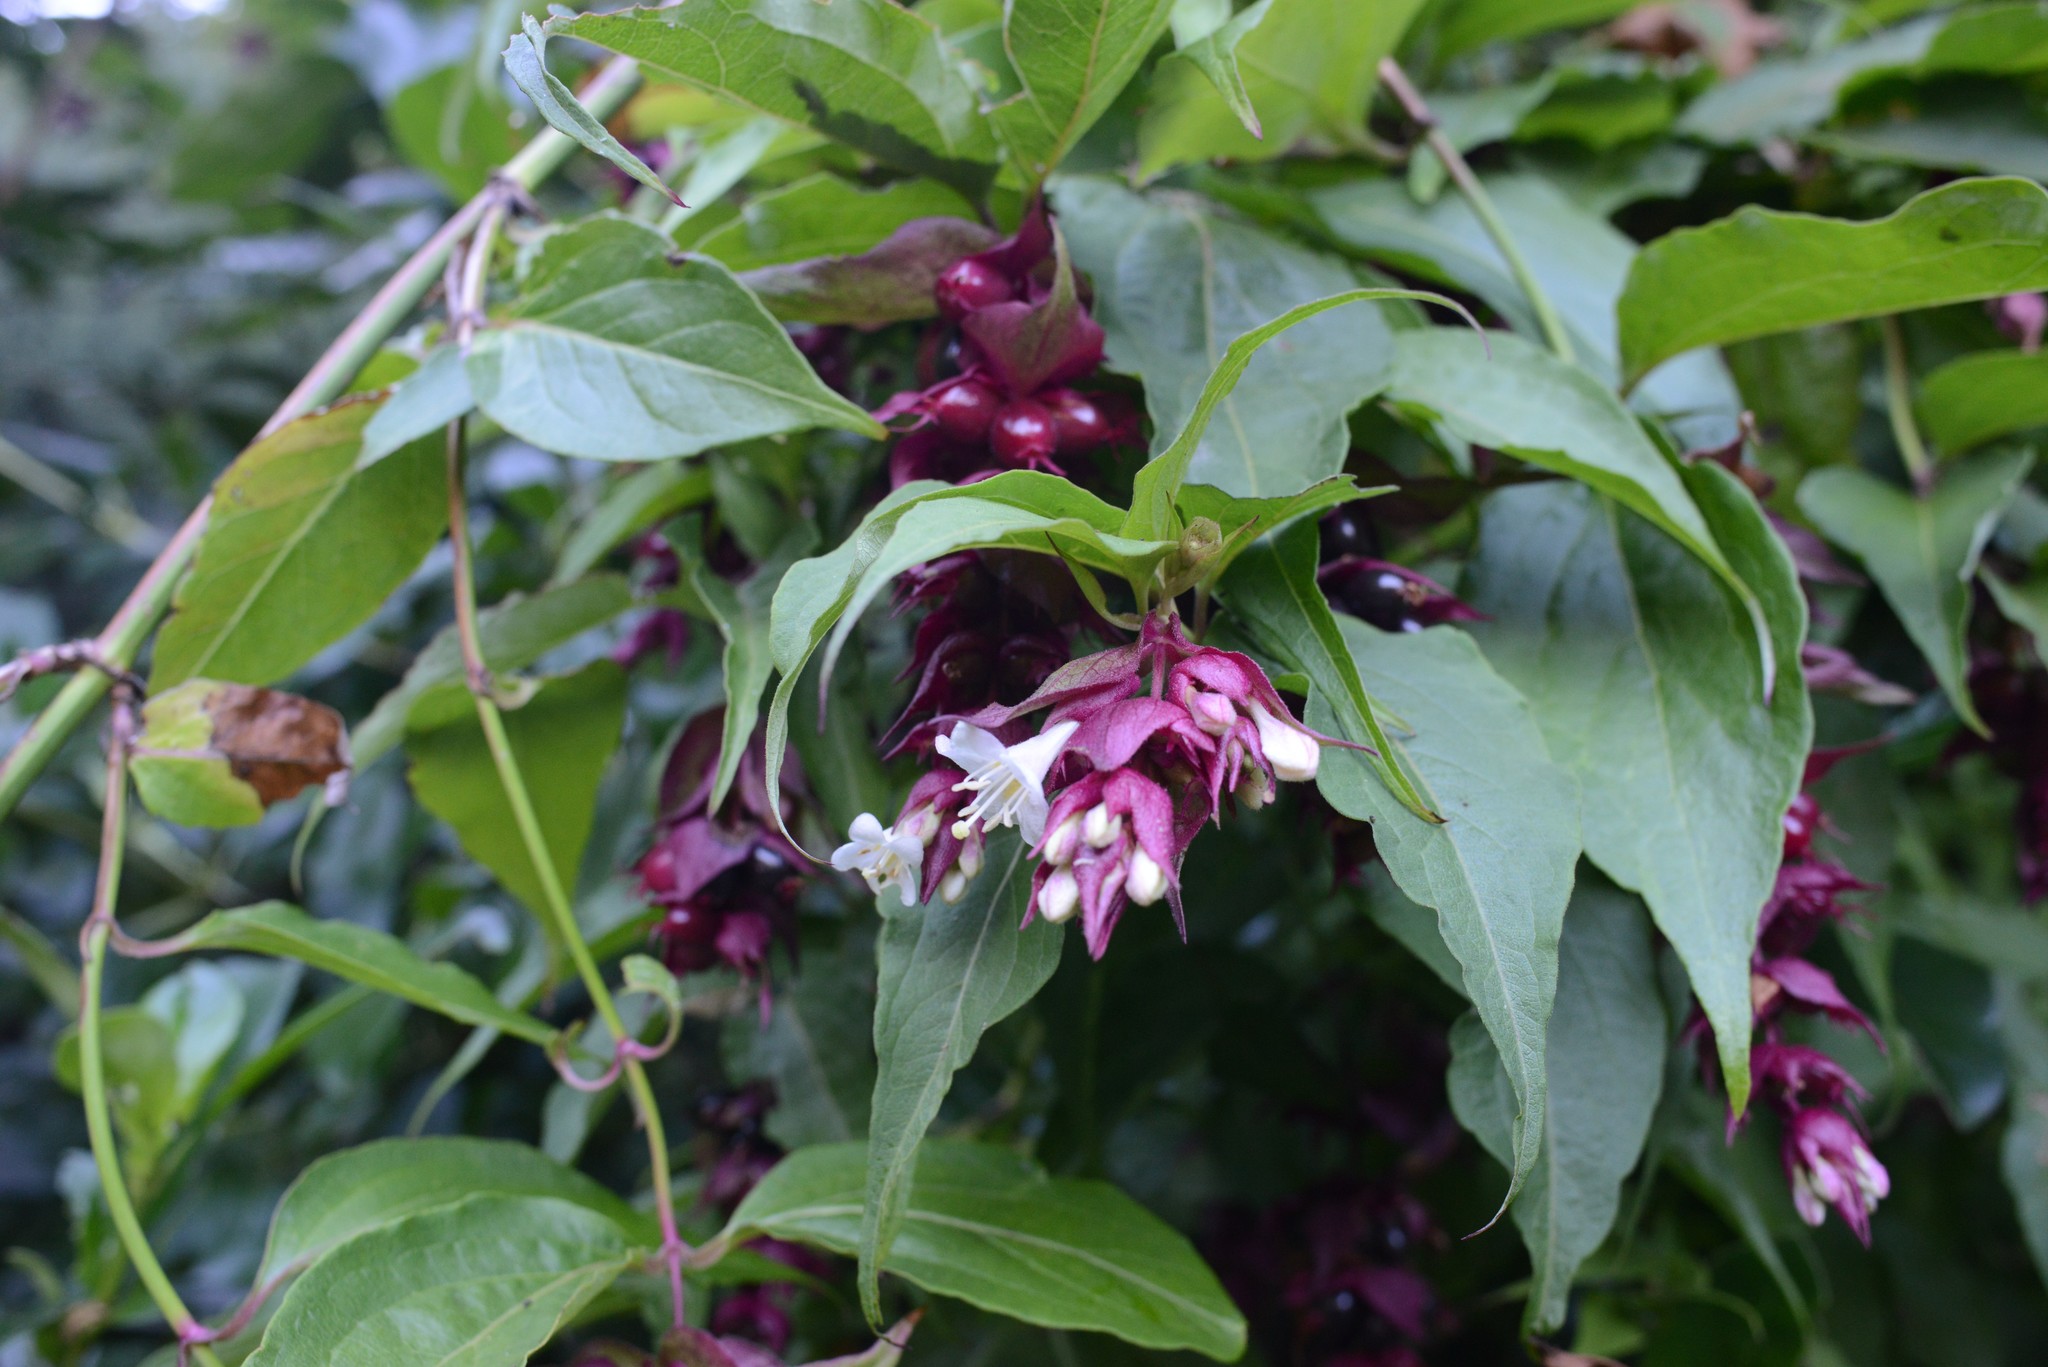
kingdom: Plantae
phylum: Tracheophyta
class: Magnoliopsida
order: Dipsacales
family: Caprifoliaceae
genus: Leycesteria
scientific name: Leycesteria formosa
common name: Himalayan honeysuckle
